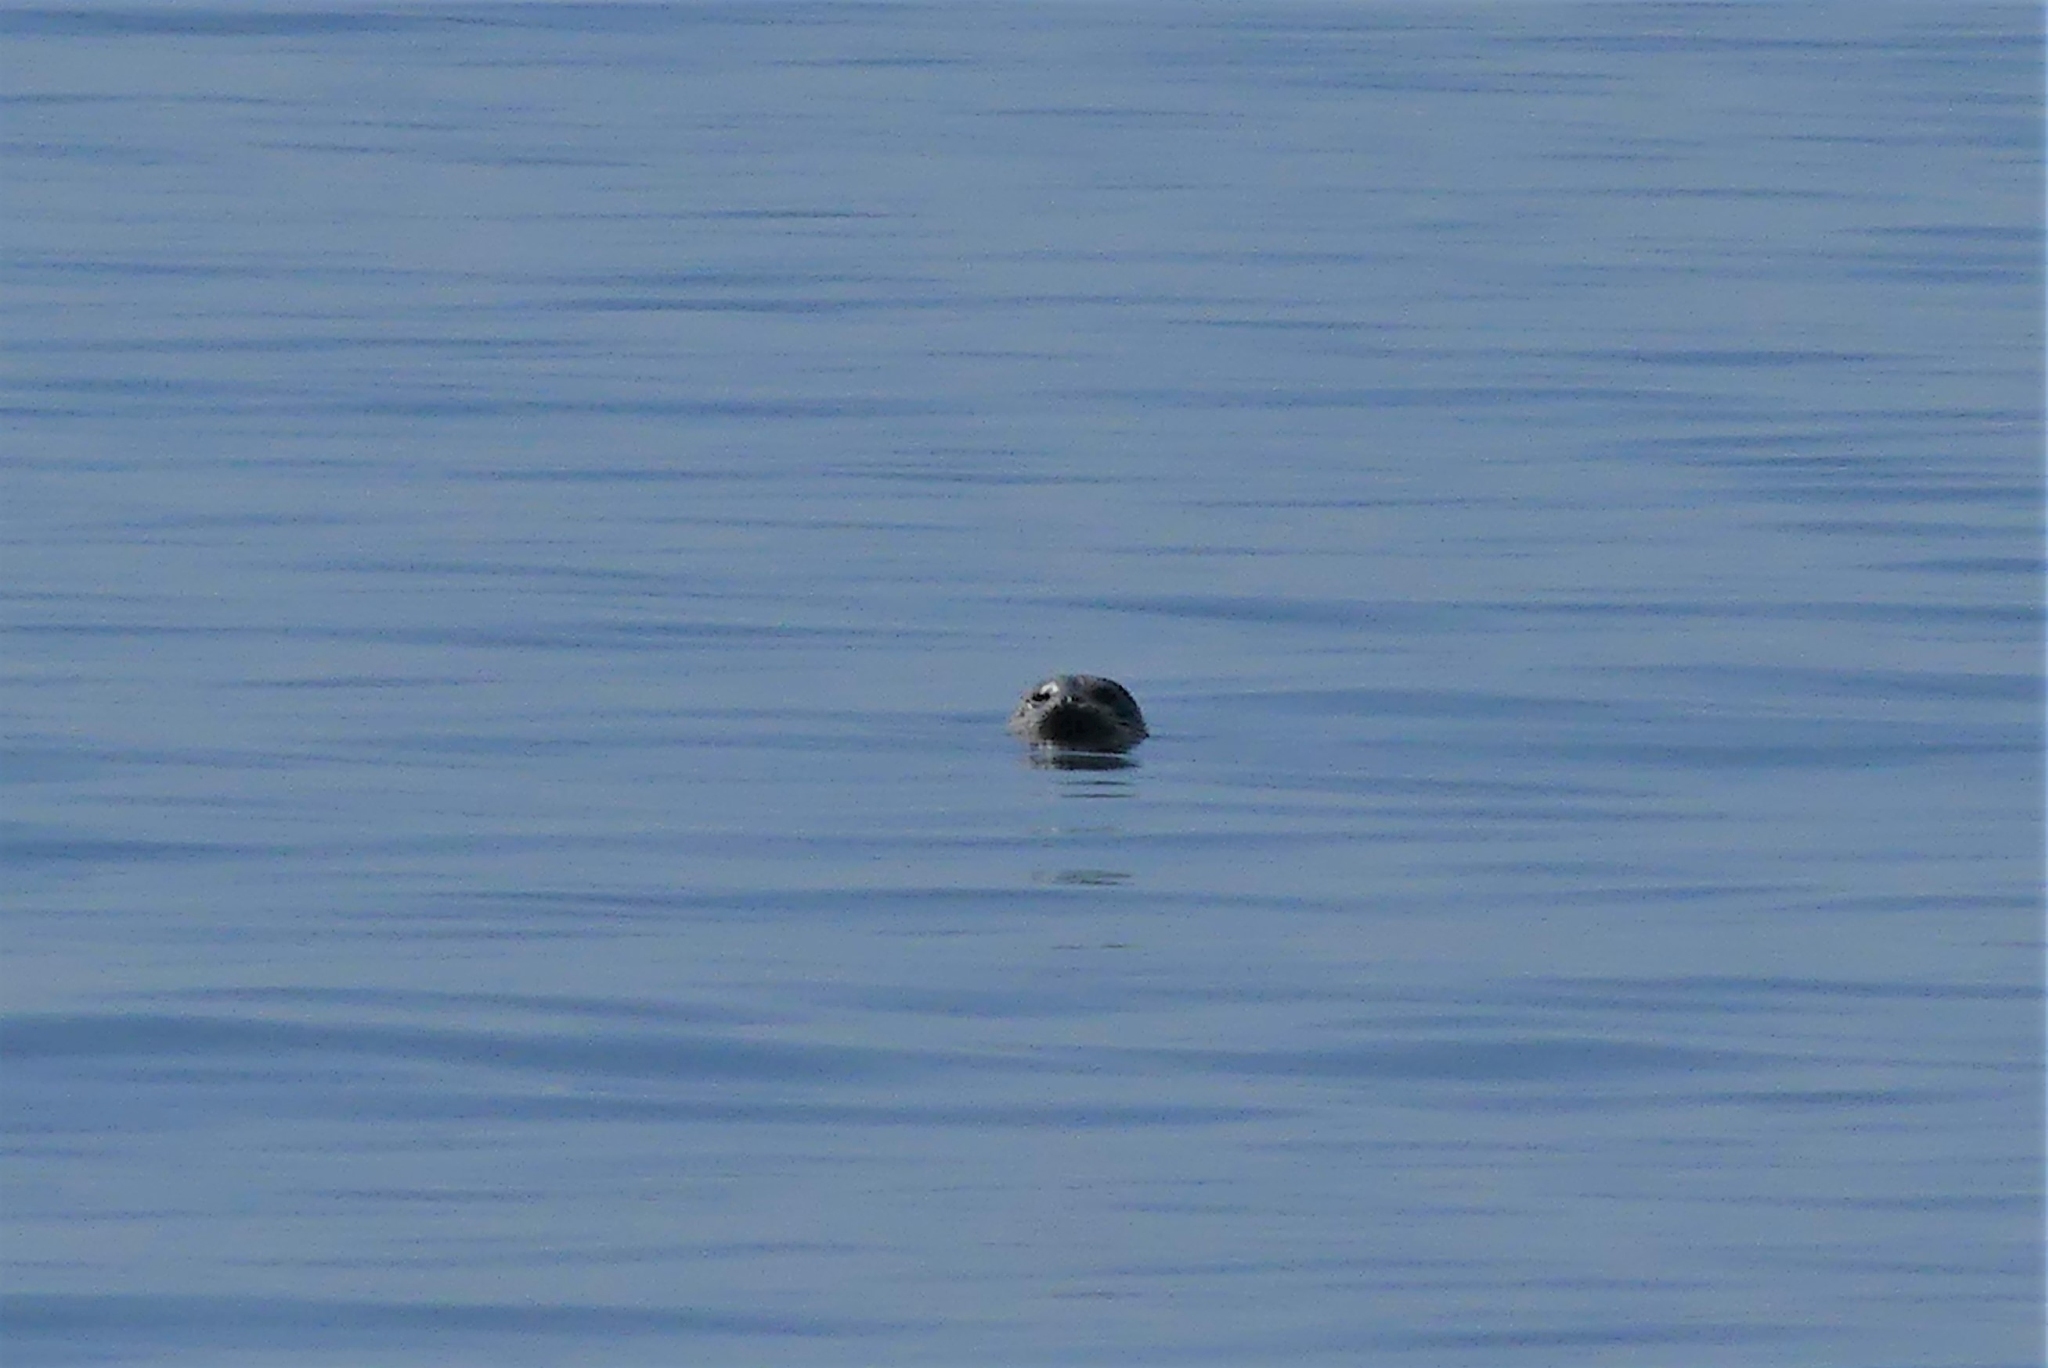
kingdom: Animalia
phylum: Chordata
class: Mammalia
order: Carnivora
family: Phocidae
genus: Phoca
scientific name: Phoca vitulina
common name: Harbor seal
